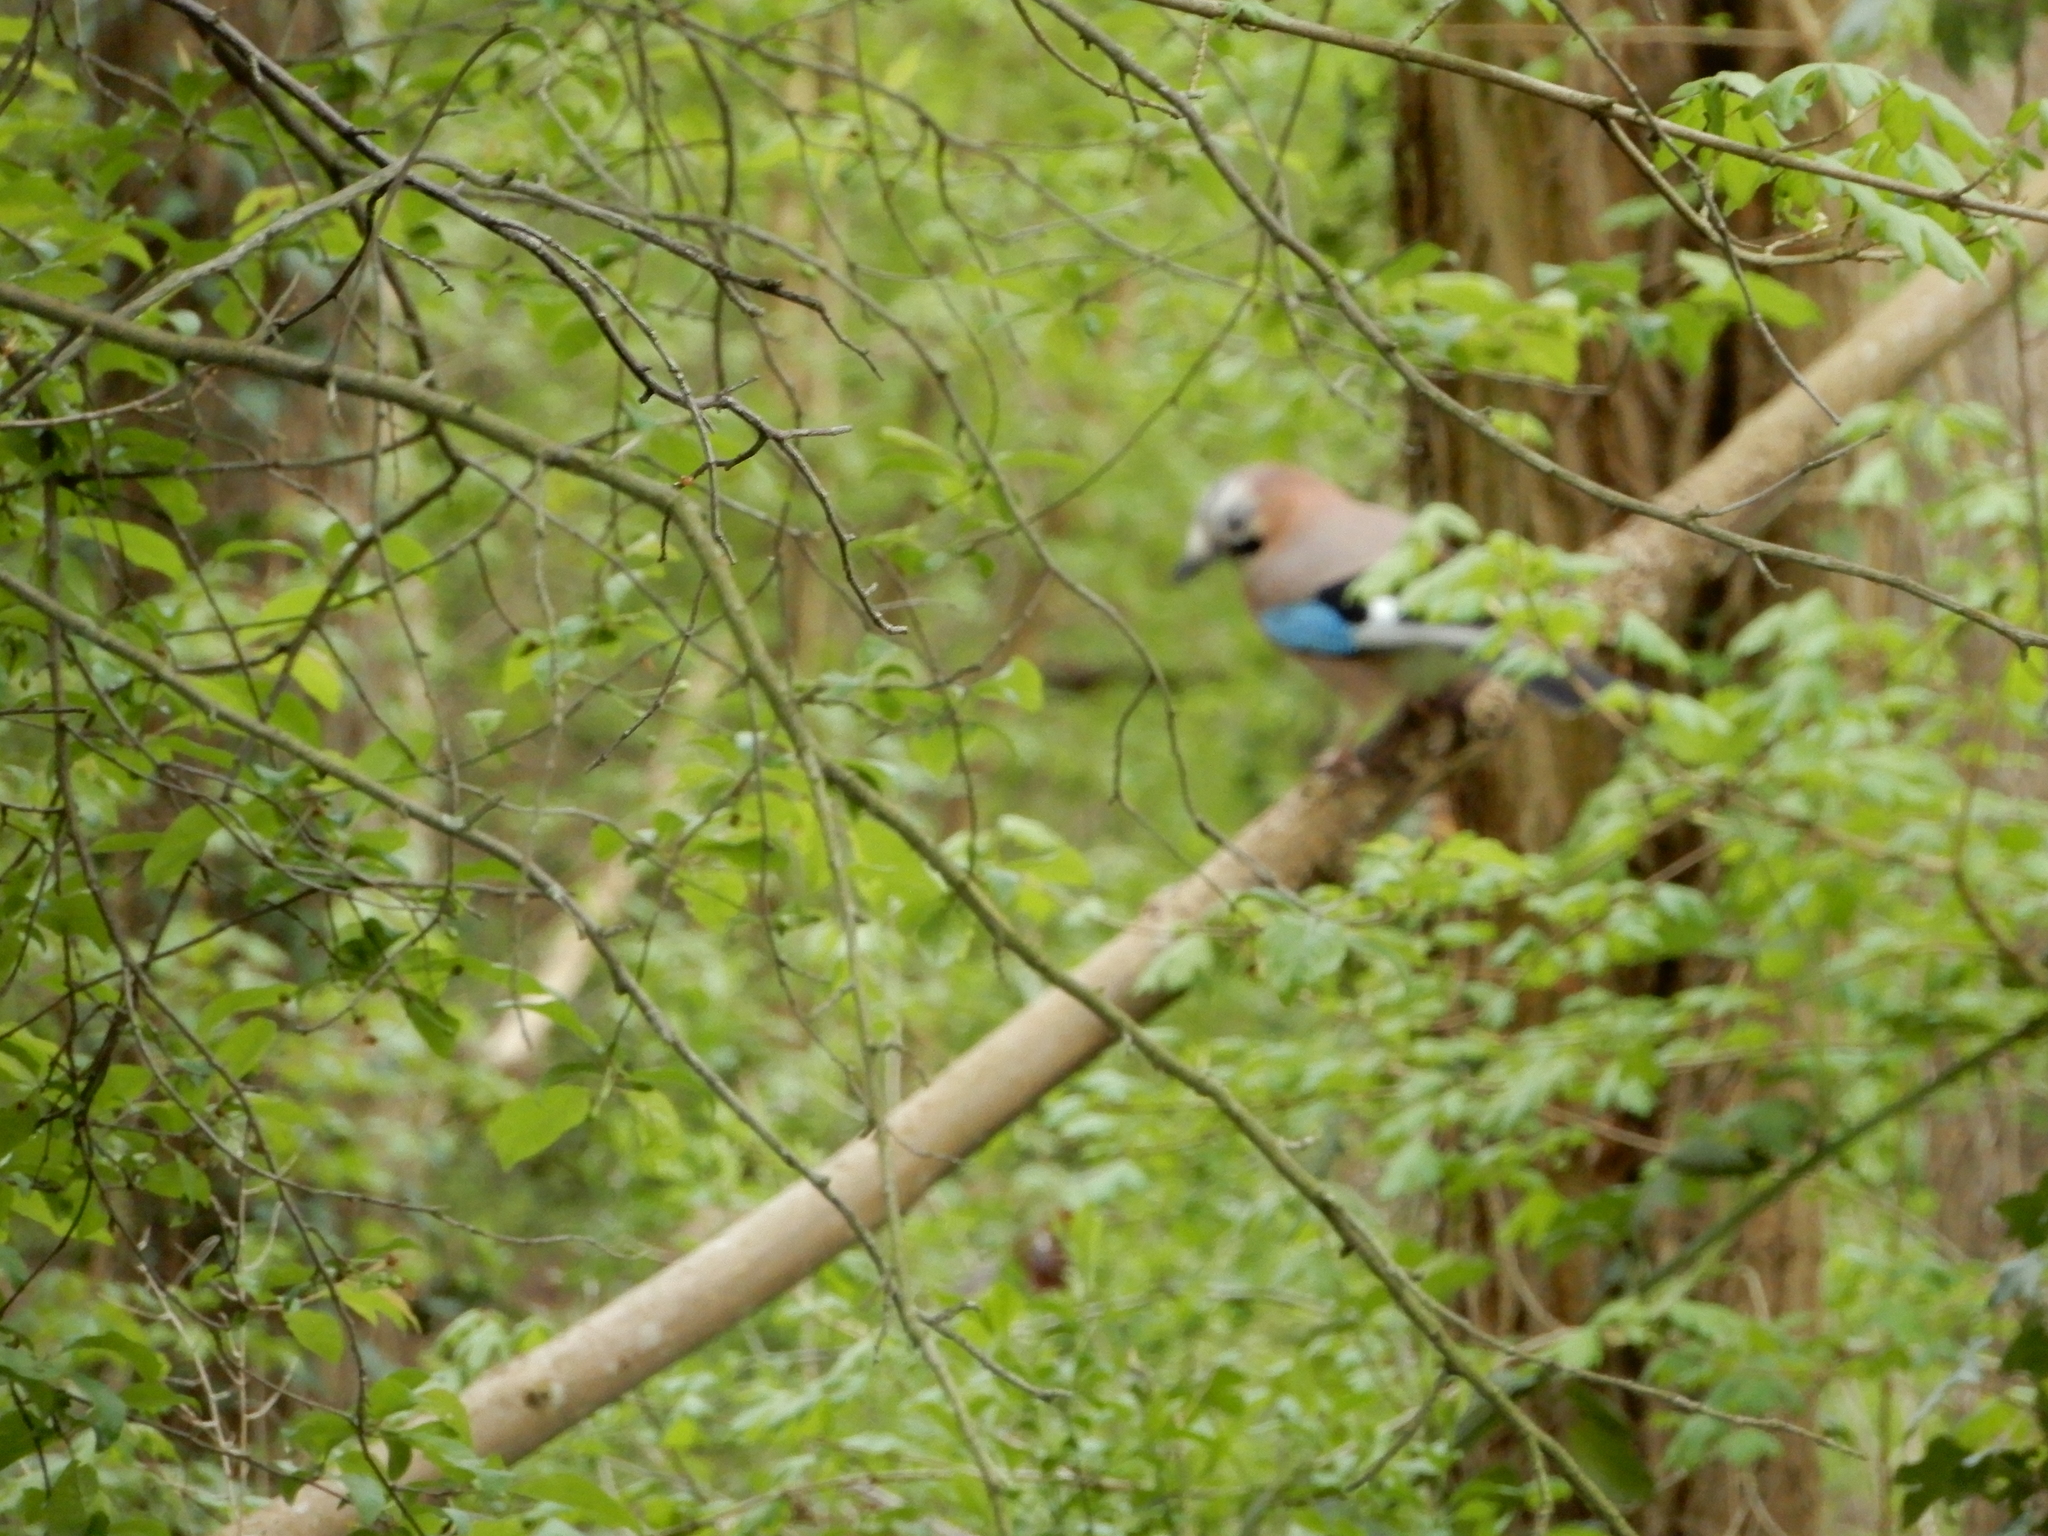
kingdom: Animalia
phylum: Chordata
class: Aves
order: Passeriformes
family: Corvidae
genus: Garrulus
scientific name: Garrulus glandarius
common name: Eurasian jay
